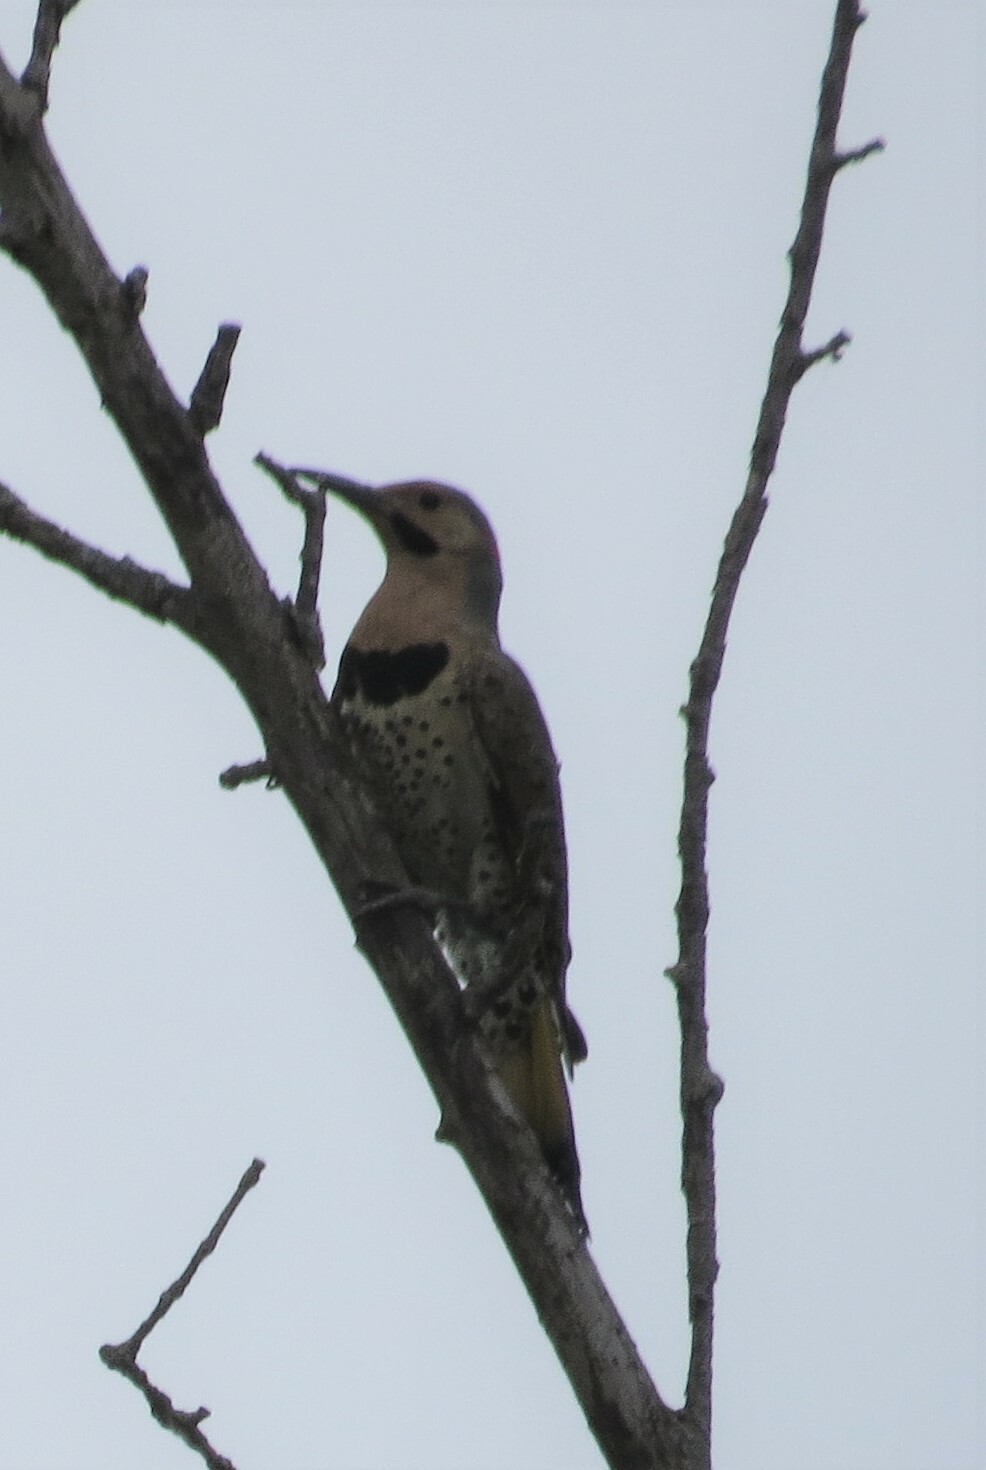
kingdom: Animalia
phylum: Chordata
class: Aves
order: Piciformes
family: Picidae
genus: Colaptes
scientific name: Colaptes auratus
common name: Northern flicker
